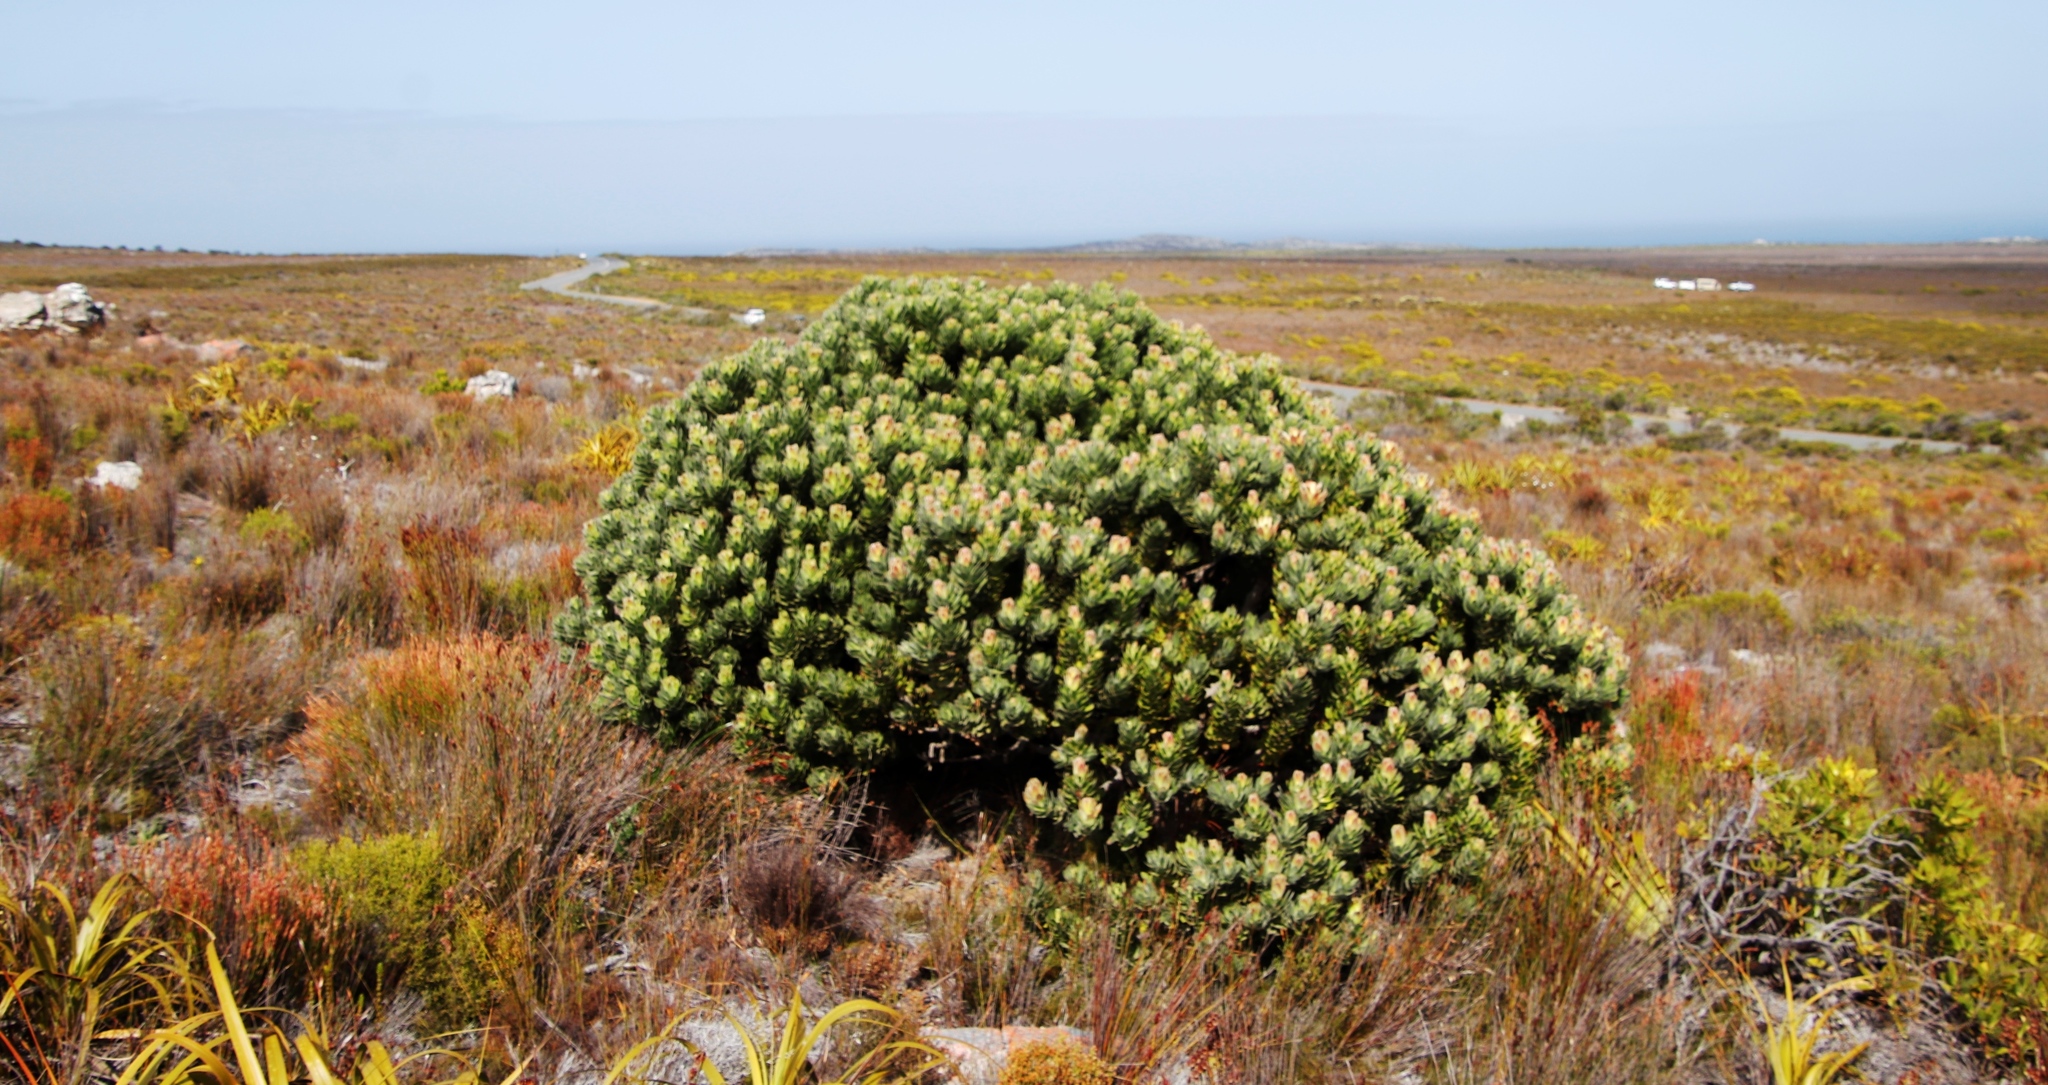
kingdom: Plantae
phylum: Tracheophyta
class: Magnoliopsida
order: Proteales
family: Proteaceae
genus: Mimetes
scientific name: Mimetes fimbriifolius
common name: Fringed bottlebrush
